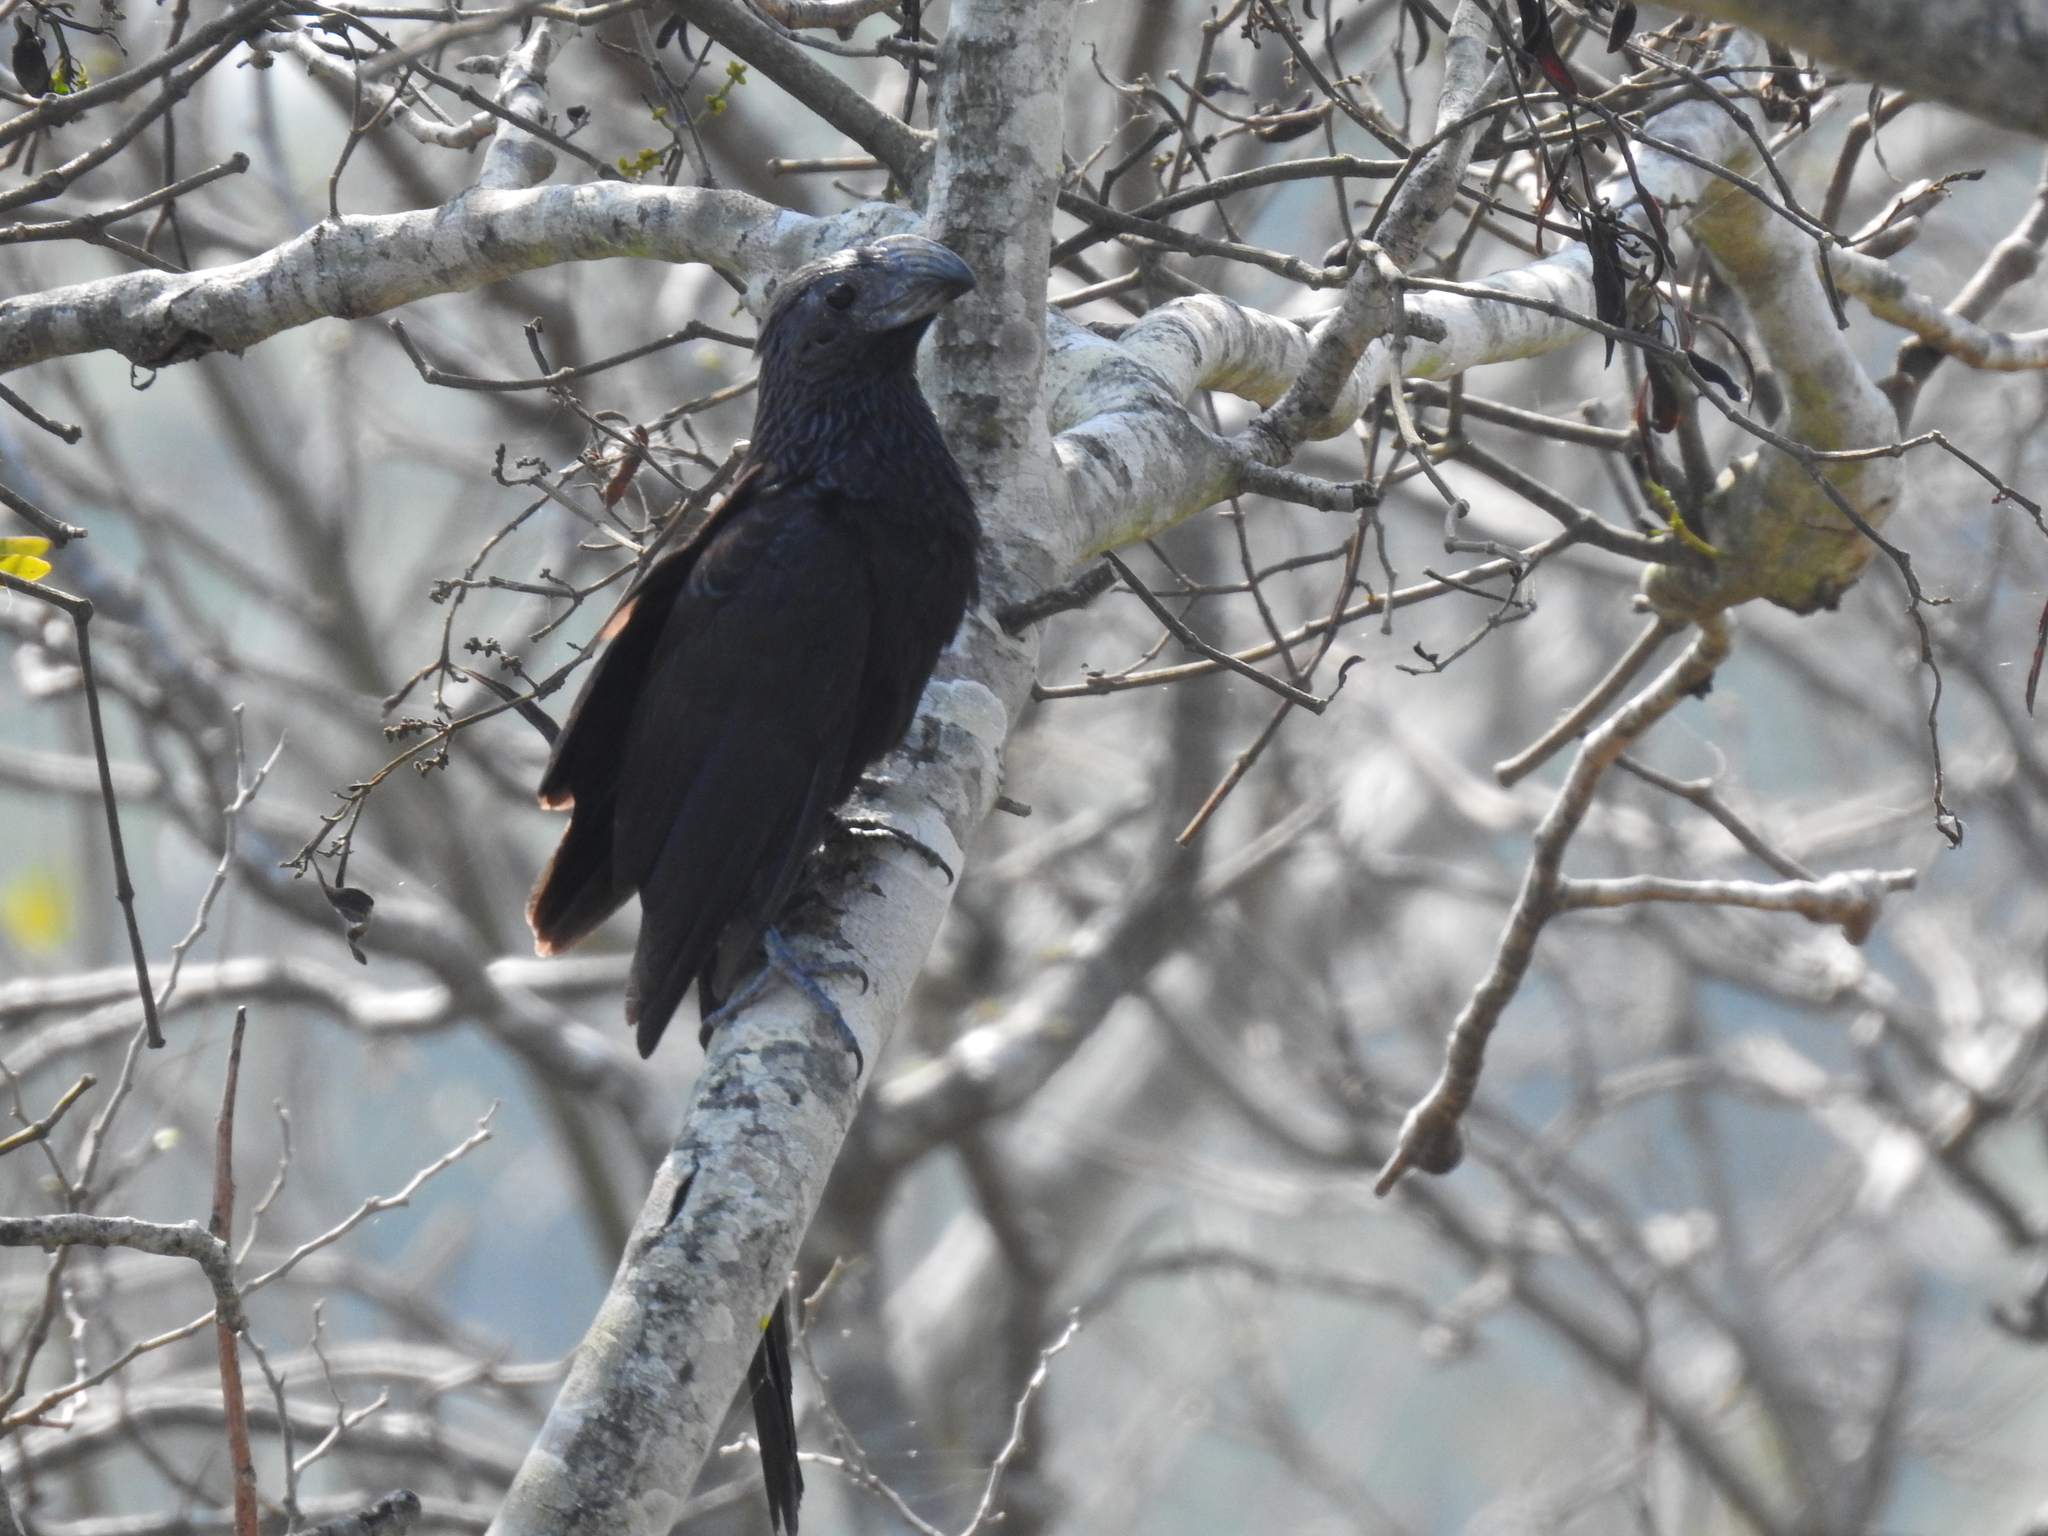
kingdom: Animalia
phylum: Chordata
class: Aves
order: Cuculiformes
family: Cuculidae
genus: Crotophaga
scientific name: Crotophaga sulcirostris
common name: Groove-billed ani
